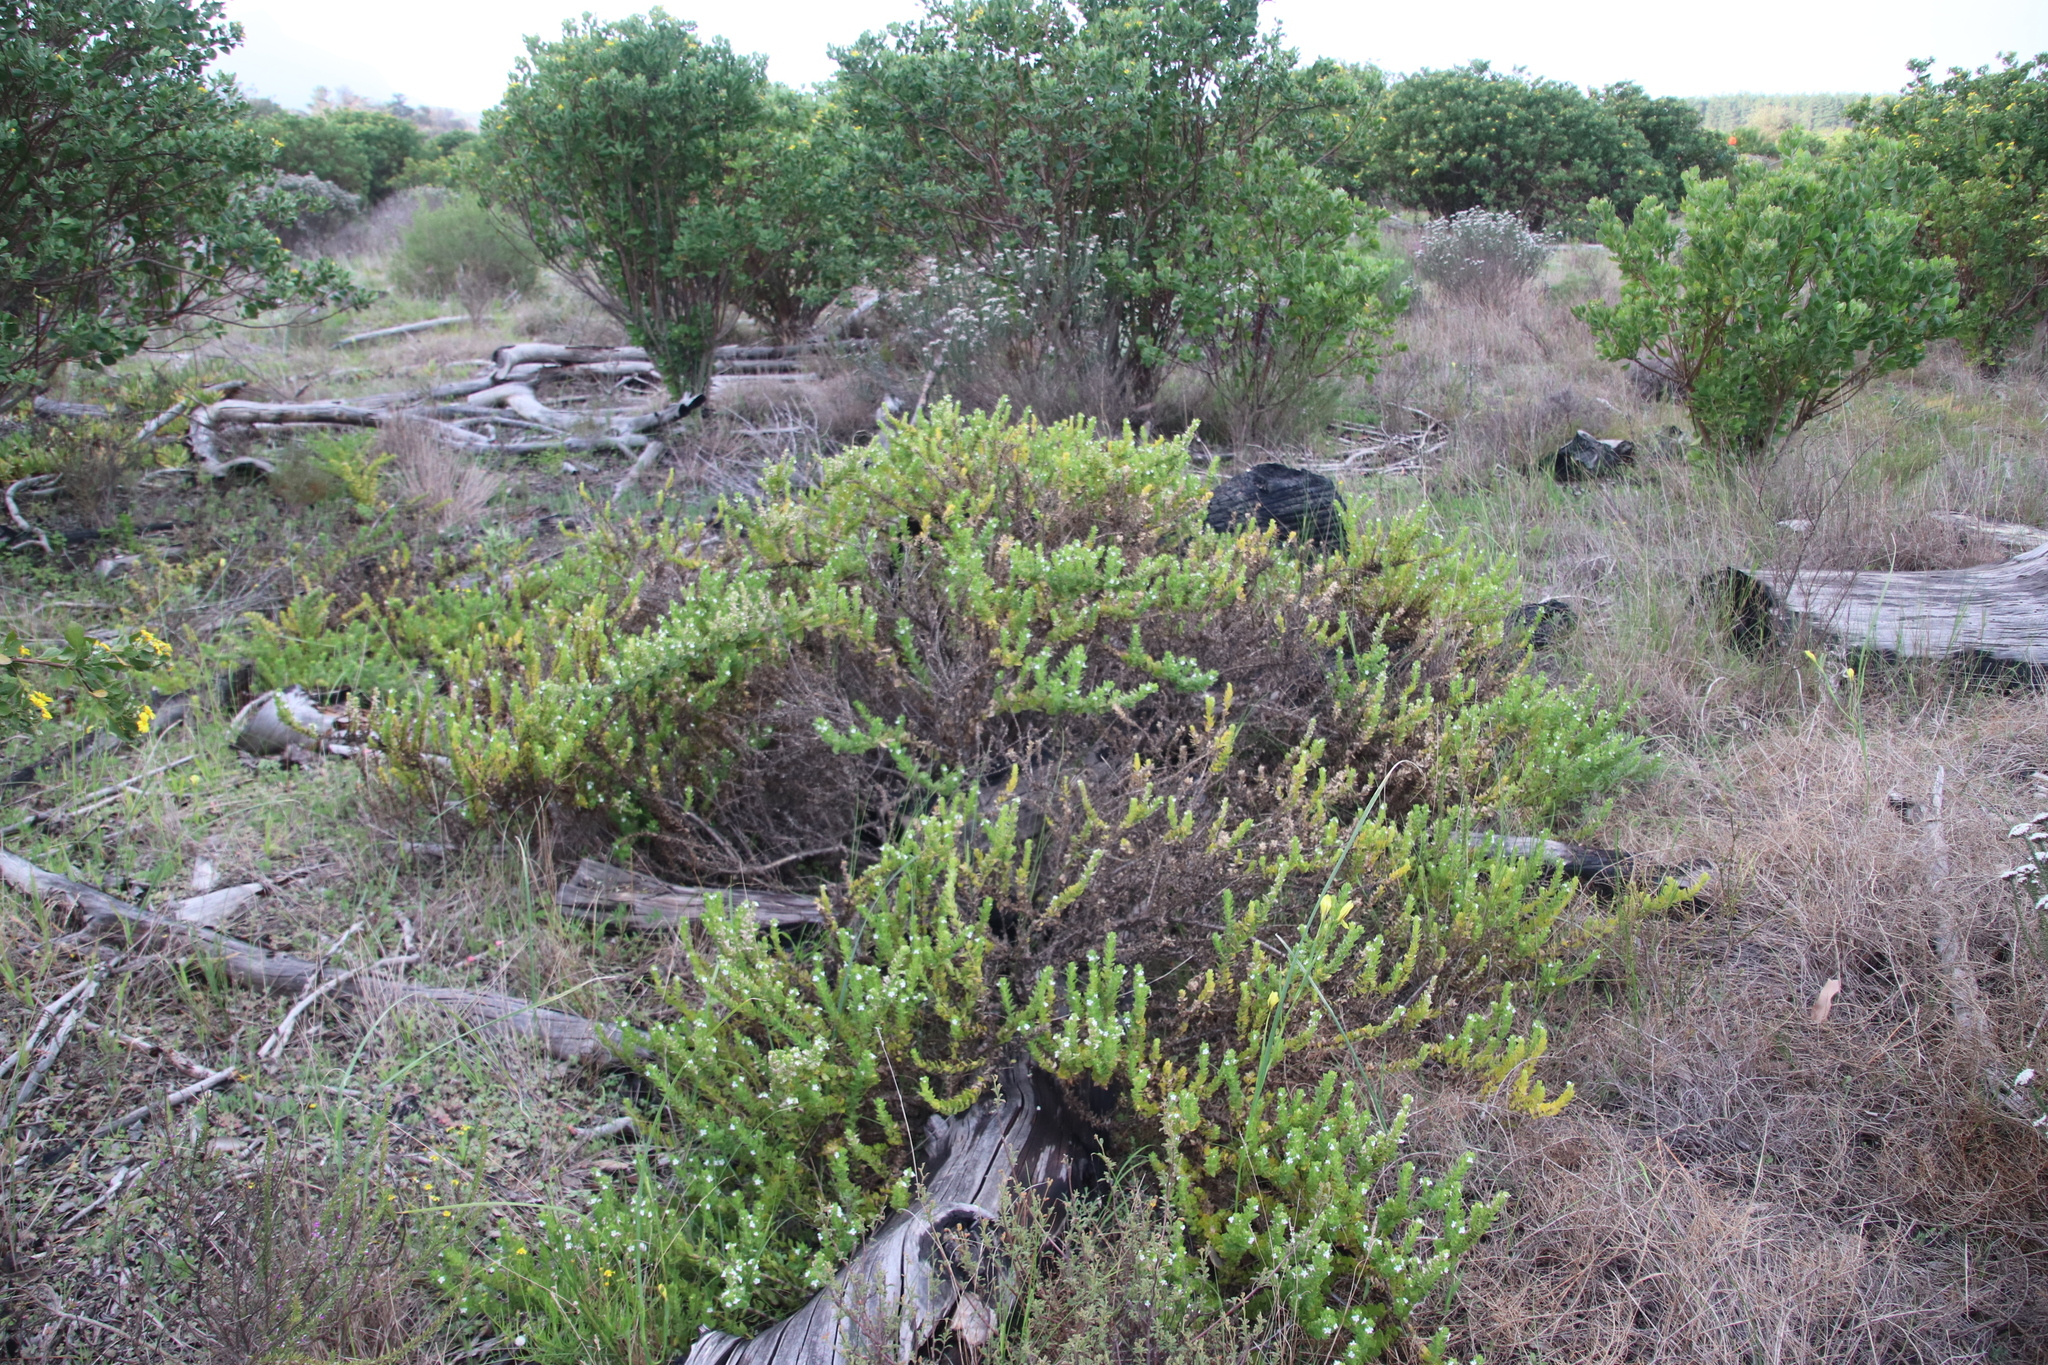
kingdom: Plantae
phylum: Tracheophyta
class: Magnoliopsida
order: Lamiales
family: Scrophulariaceae
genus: Oftia
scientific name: Oftia africana
